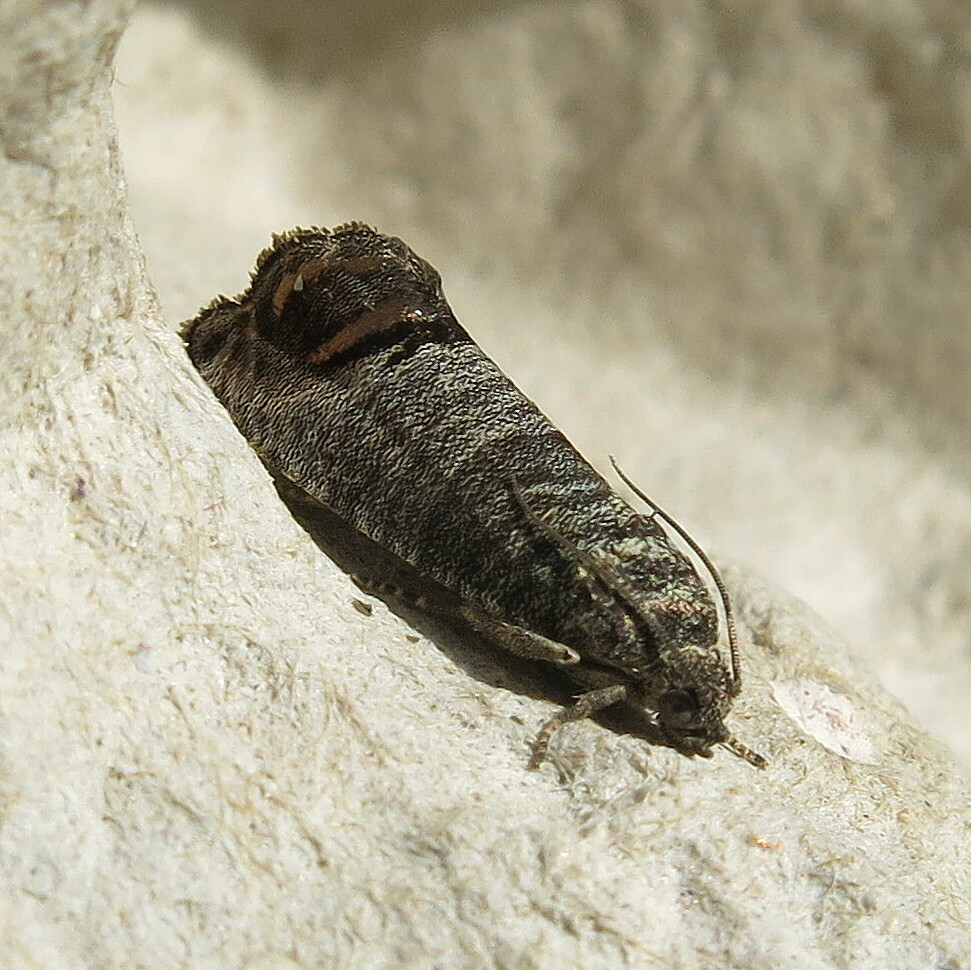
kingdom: Animalia
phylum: Arthropoda
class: Insecta
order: Lepidoptera
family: Tortricidae
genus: Cydia
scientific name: Cydia pomonella
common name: Codling moth
